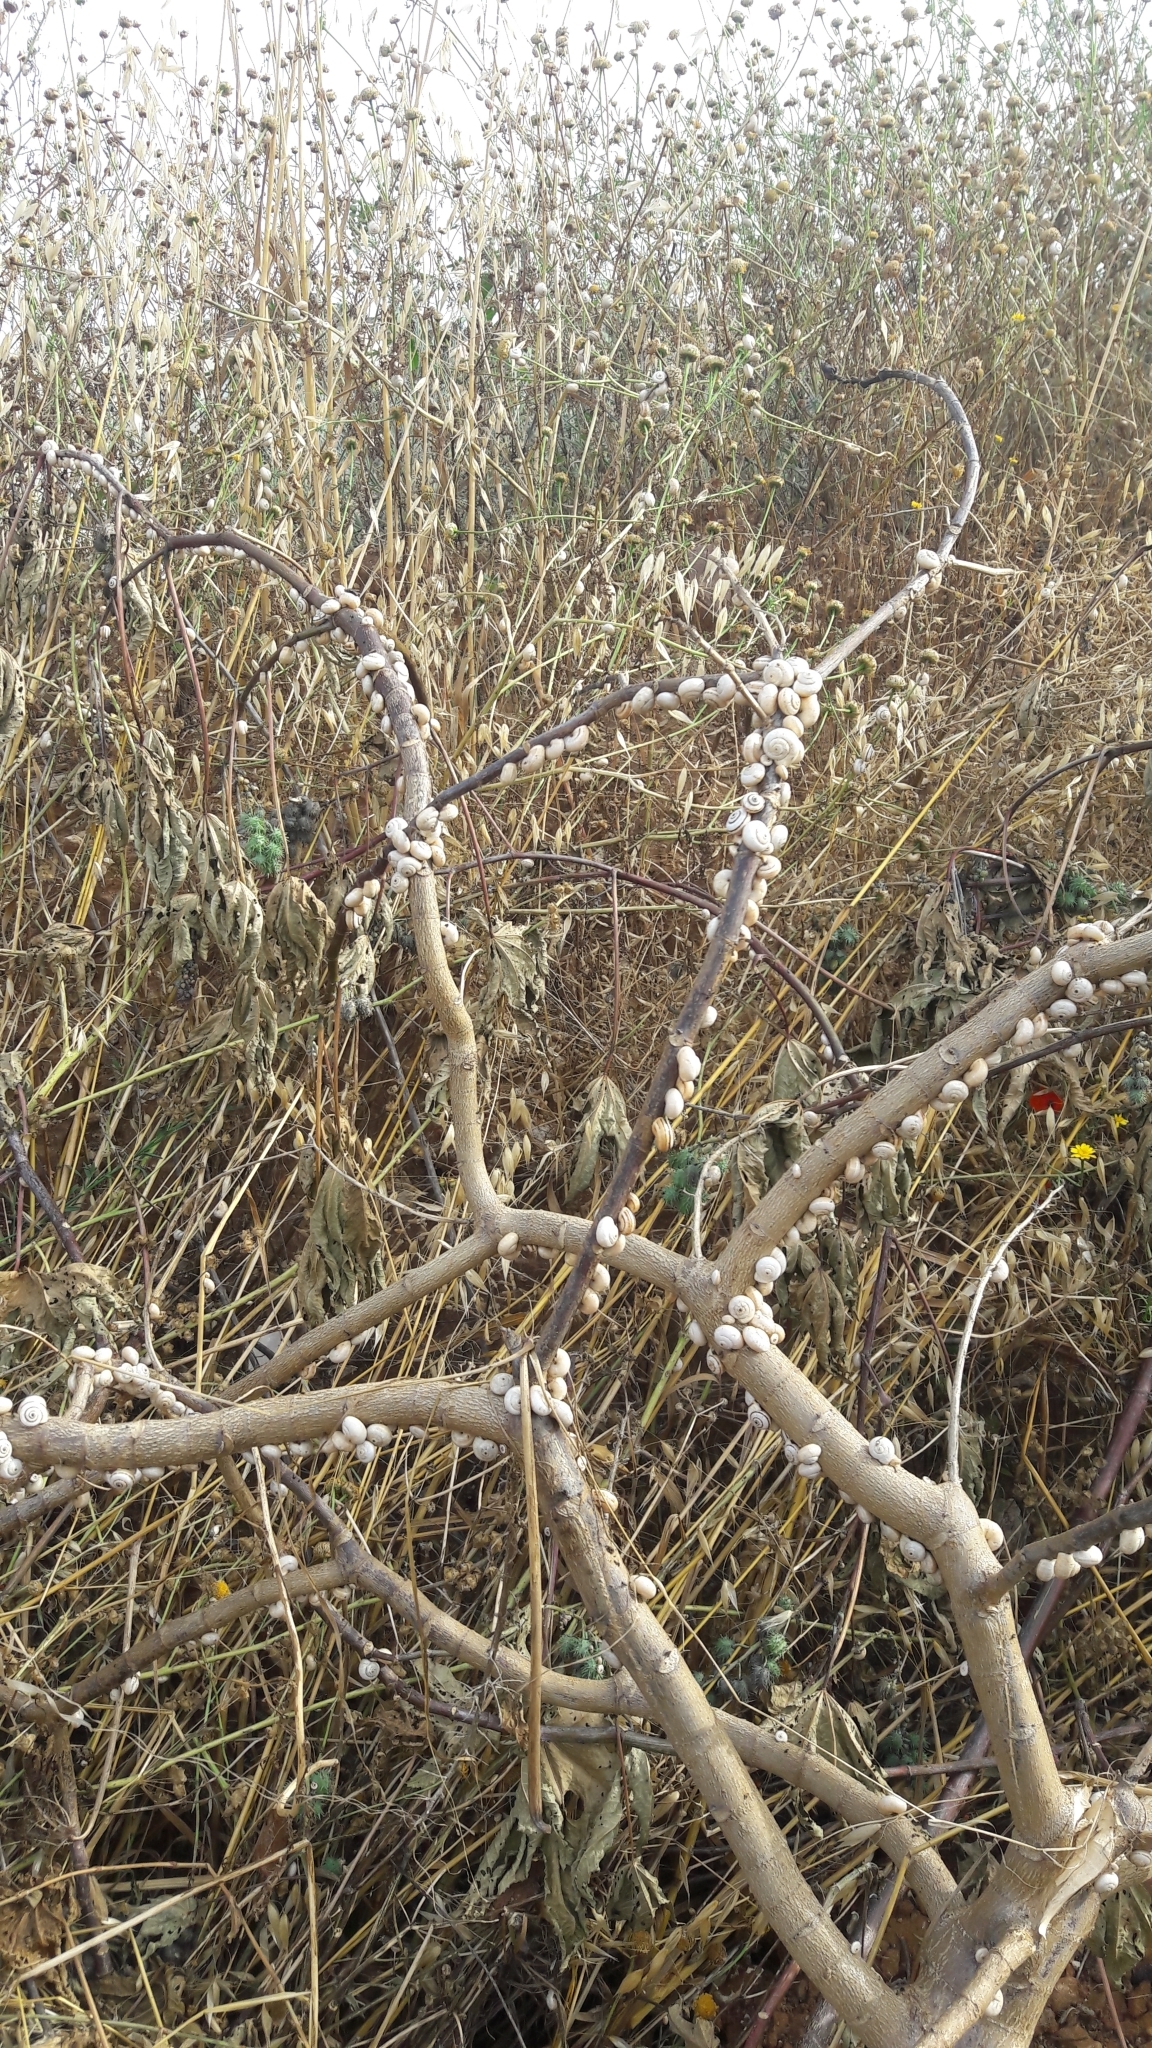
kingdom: Animalia
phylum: Mollusca
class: Gastropoda
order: Stylommatophora
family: Helicidae
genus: Theba
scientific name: Theba pisana
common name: White snail
